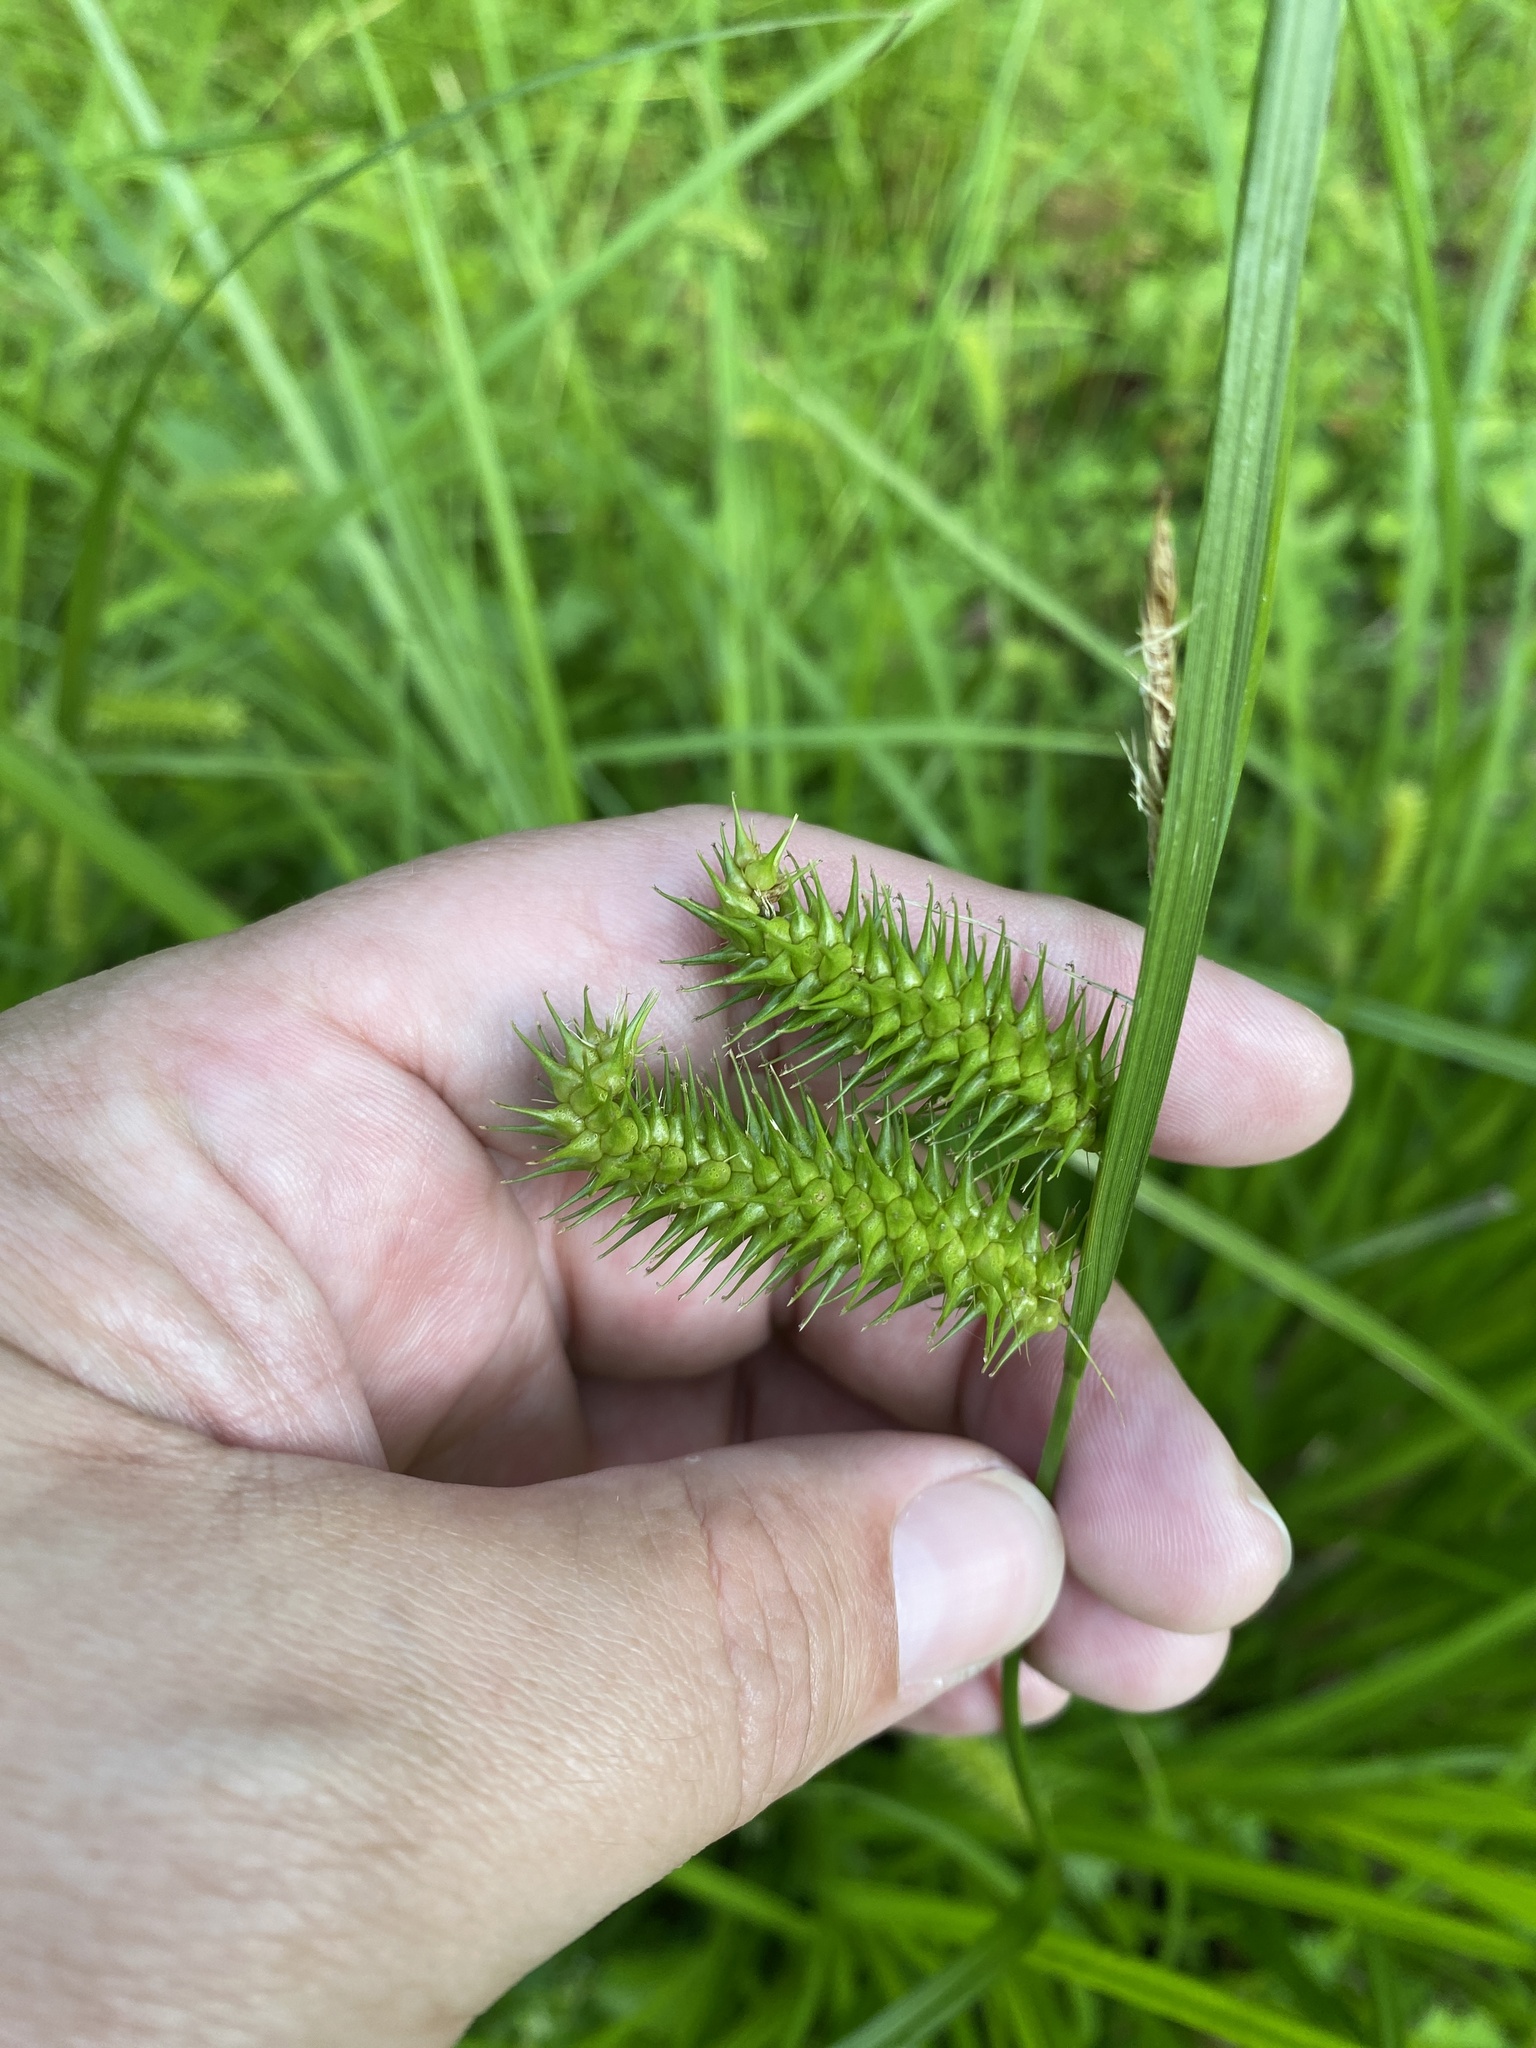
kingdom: Plantae
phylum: Tracheophyta
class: Liliopsida
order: Poales
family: Cyperaceae
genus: Carex
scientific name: Carex lurida
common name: Sallow sedge
